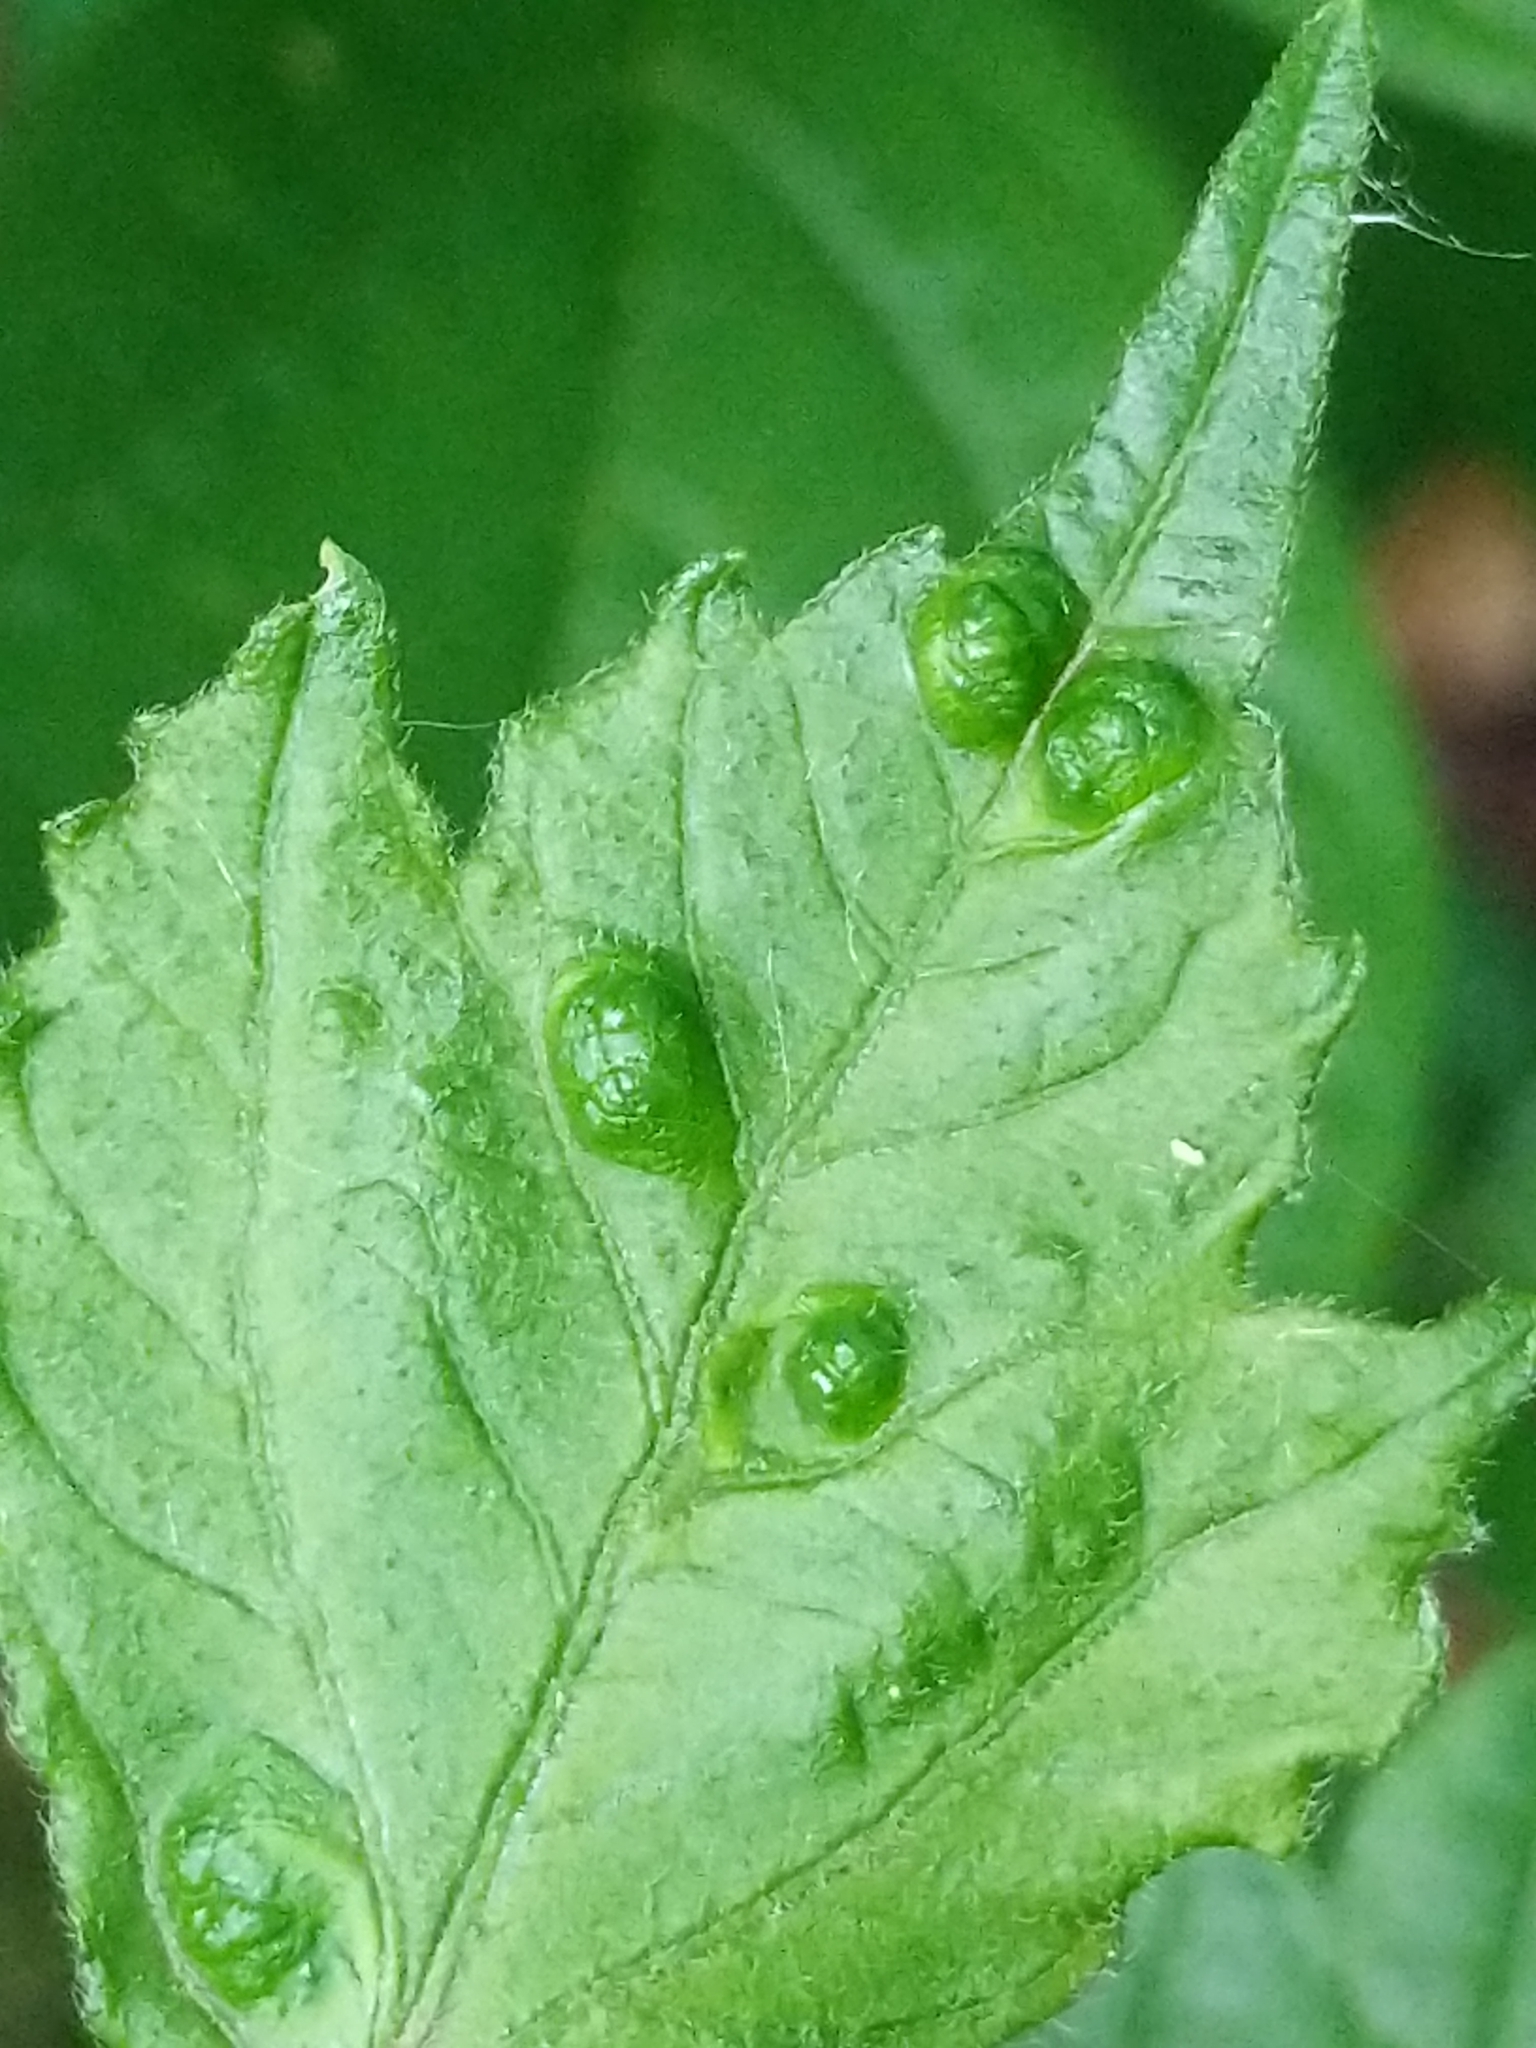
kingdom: Animalia
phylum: Arthropoda
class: Arachnida
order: Trombidiformes
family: Eriophyidae
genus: Aceria
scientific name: Aceria
